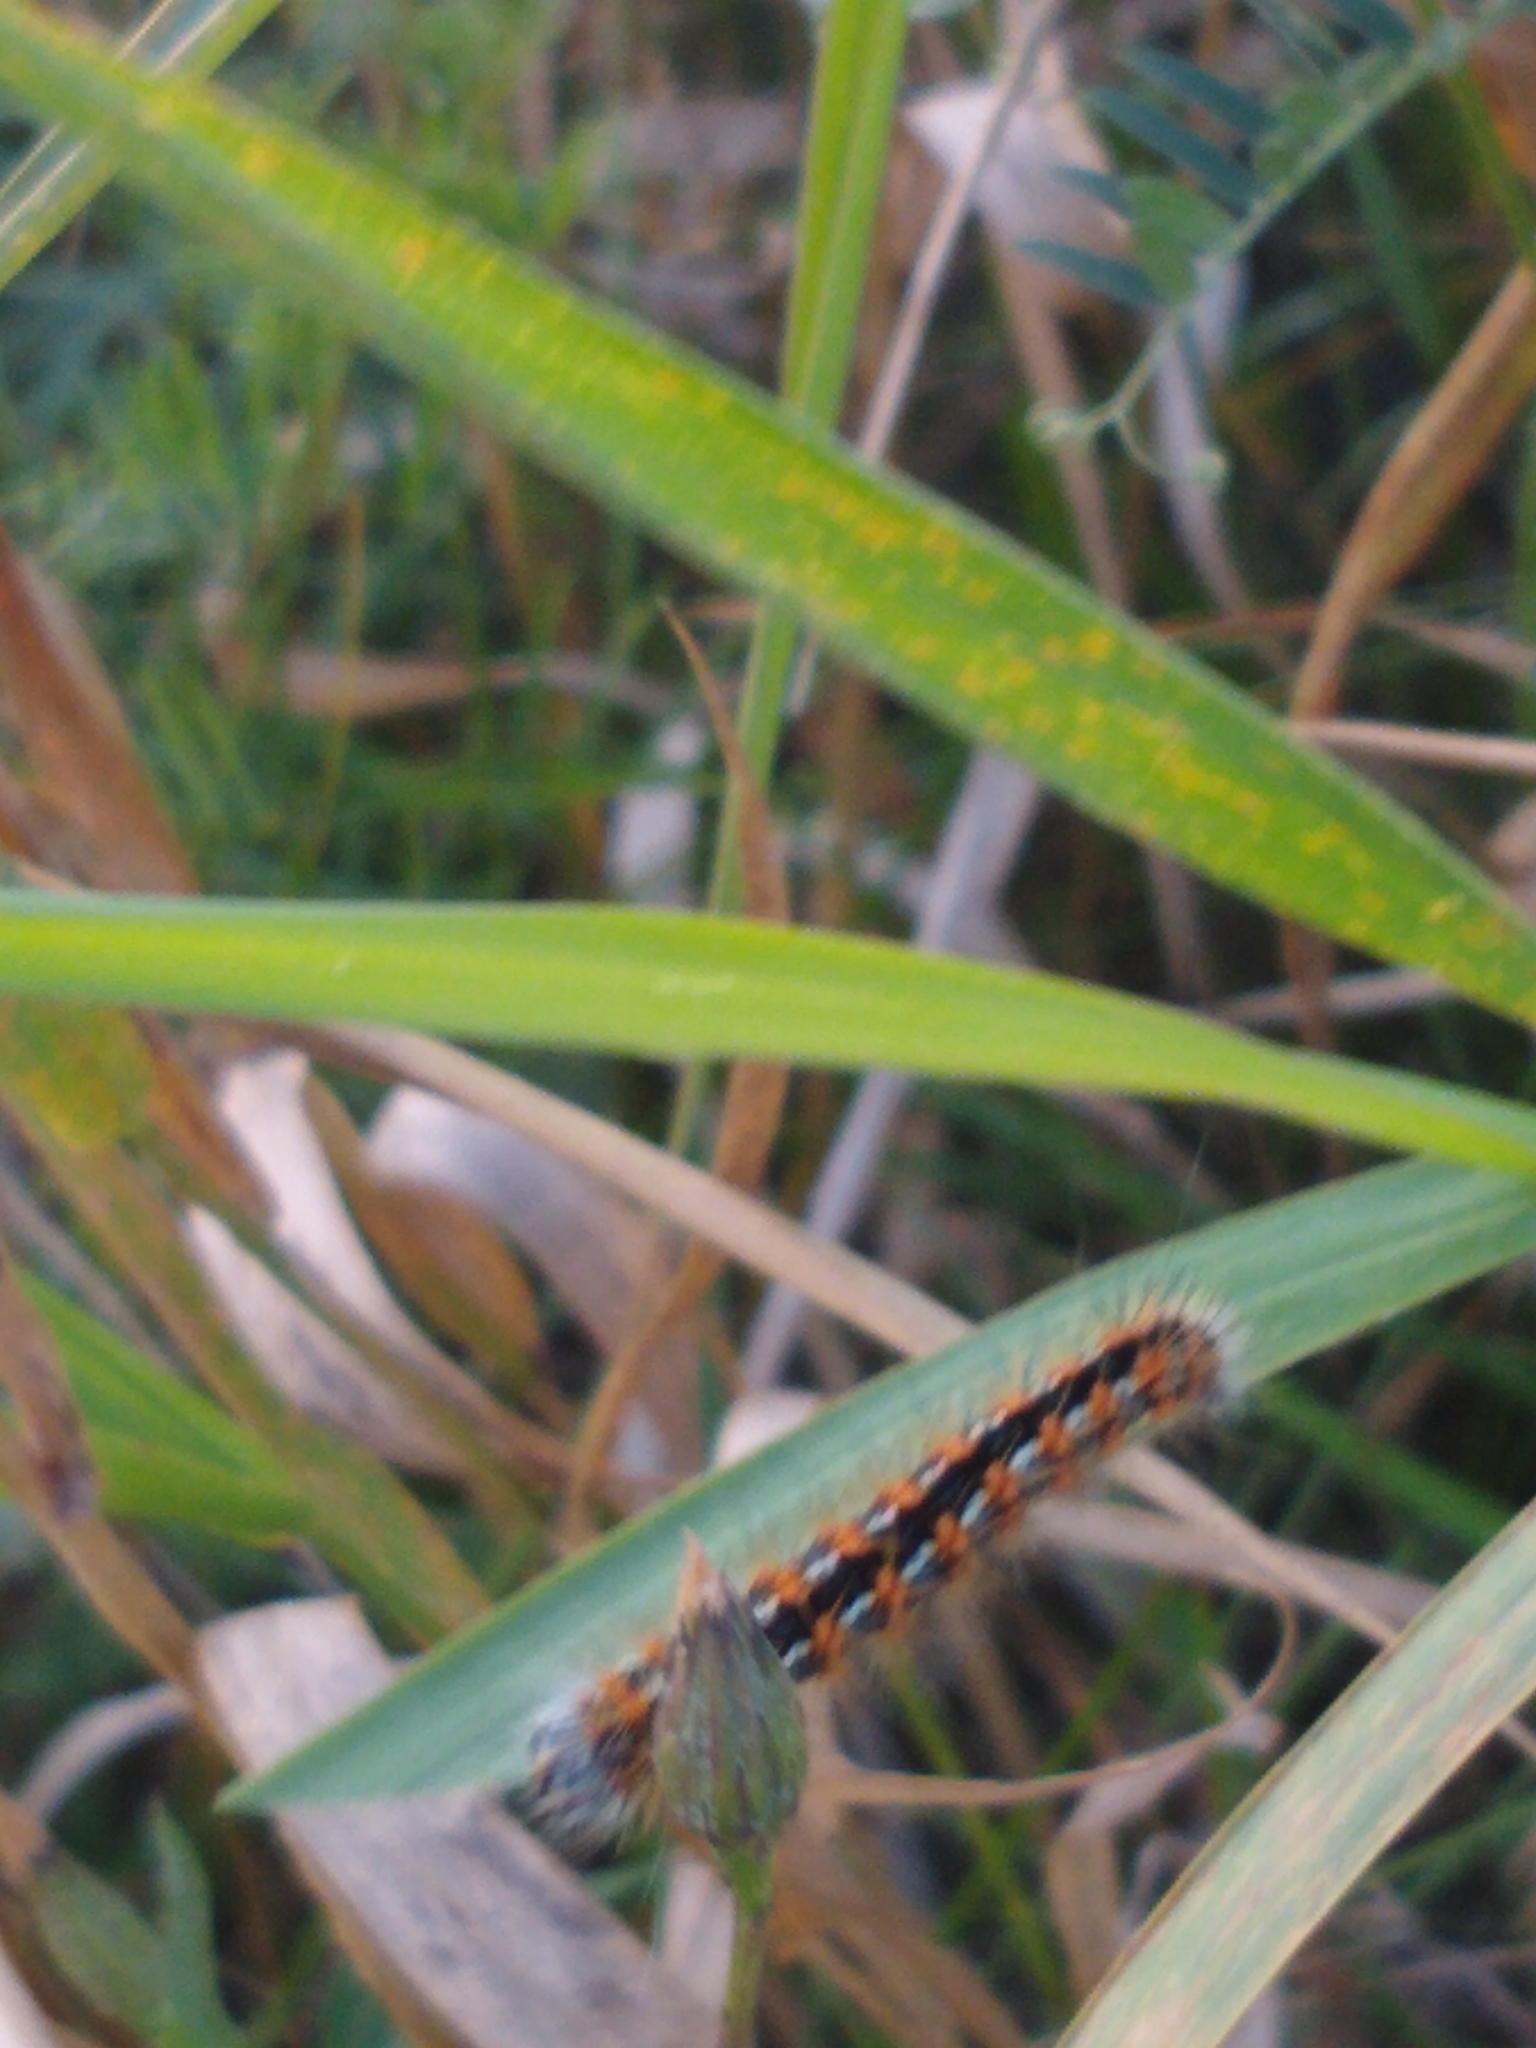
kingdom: Animalia
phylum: Arthropoda
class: Insecta
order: Lepidoptera
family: Noctuidae
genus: Acronicta
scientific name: Acronicta insularis
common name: Henry's marsh moth
